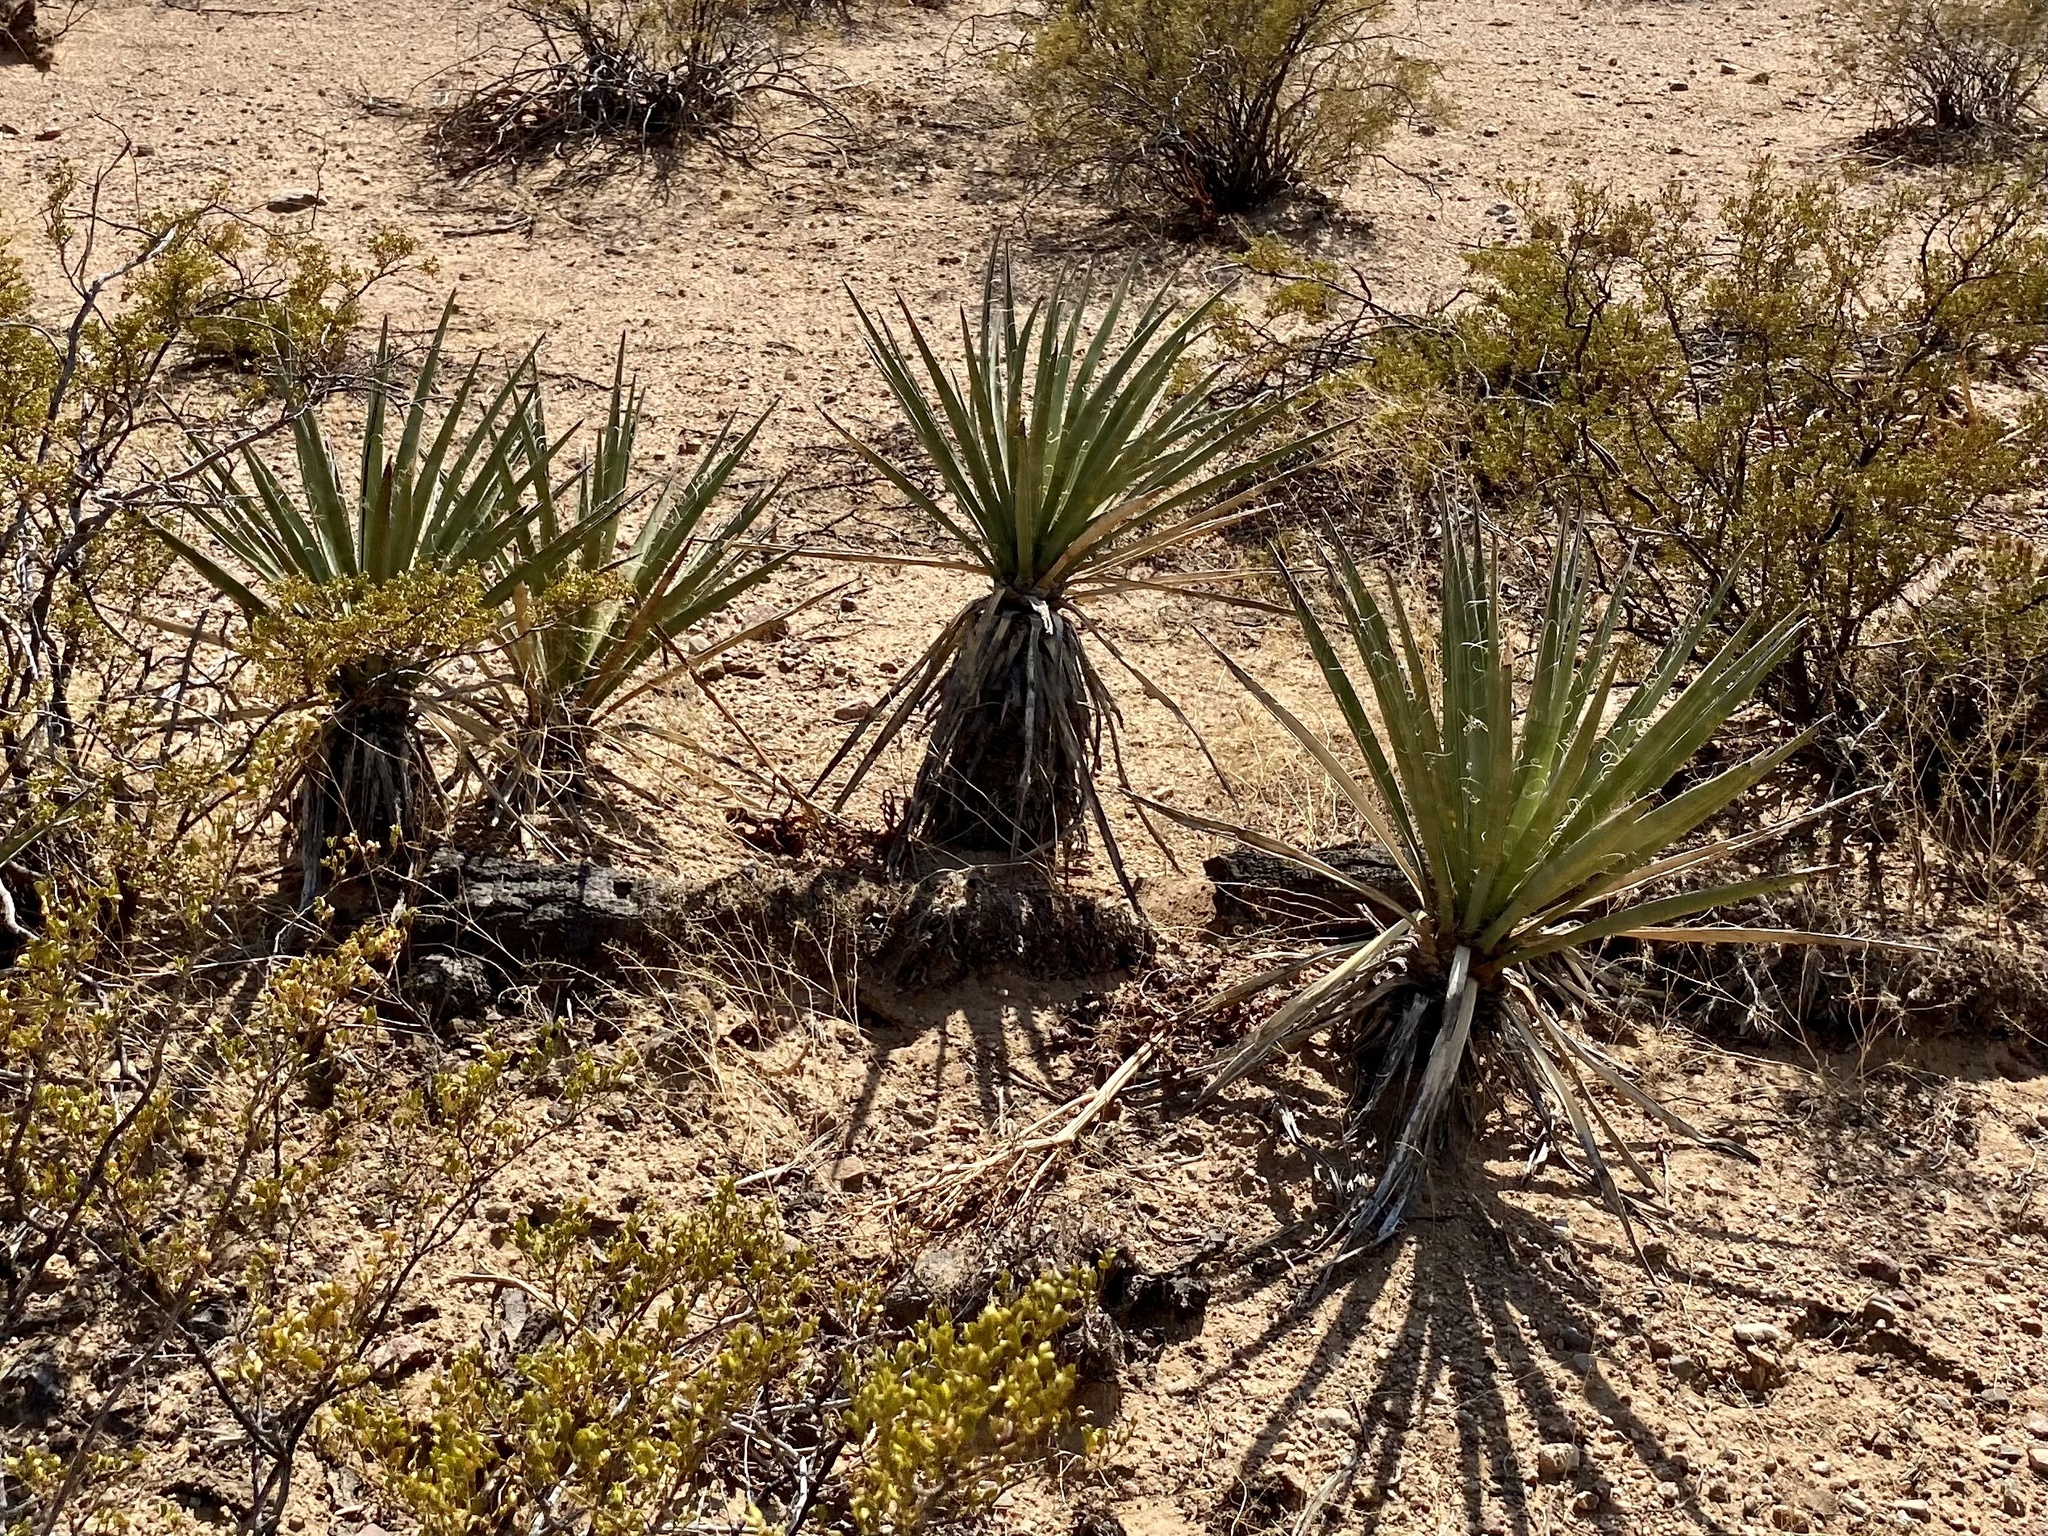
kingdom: Plantae
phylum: Tracheophyta
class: Liliopsida
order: Asparagales
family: Asparagaceae
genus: Yucca
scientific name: Yucca baccata
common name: Banana yucca
